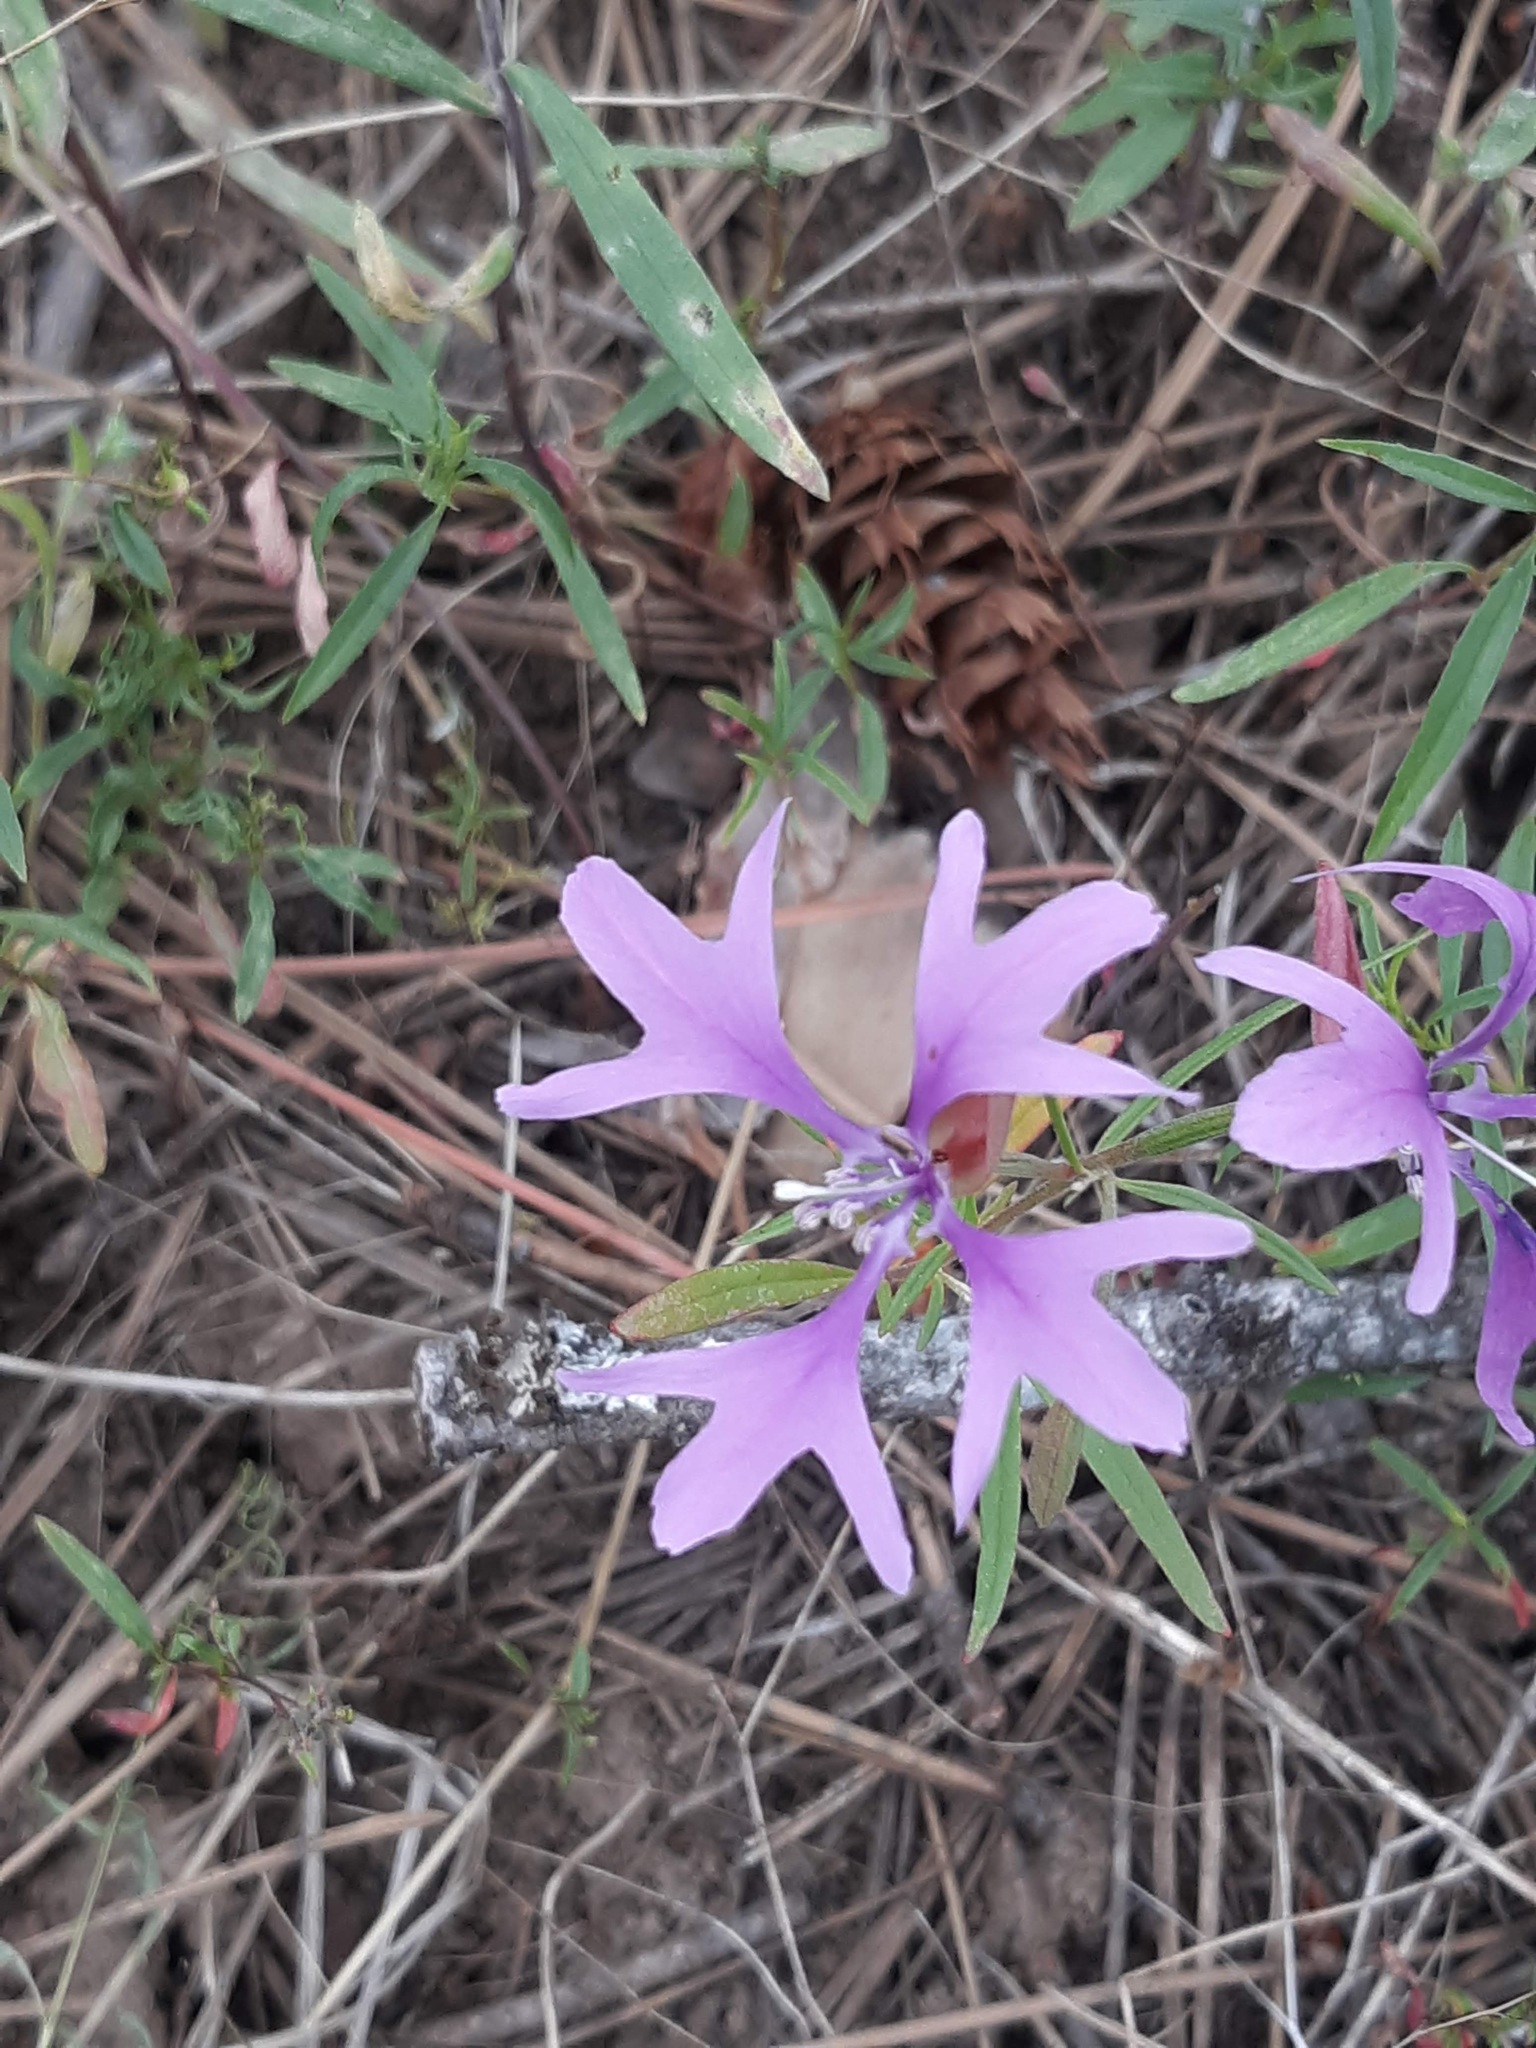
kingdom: Plantae
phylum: Tracheophyta
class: Magnoliopsida
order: Myrtales
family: Onagraceae
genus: Clarkia
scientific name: Clarkia pulchella
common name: Deer horn
